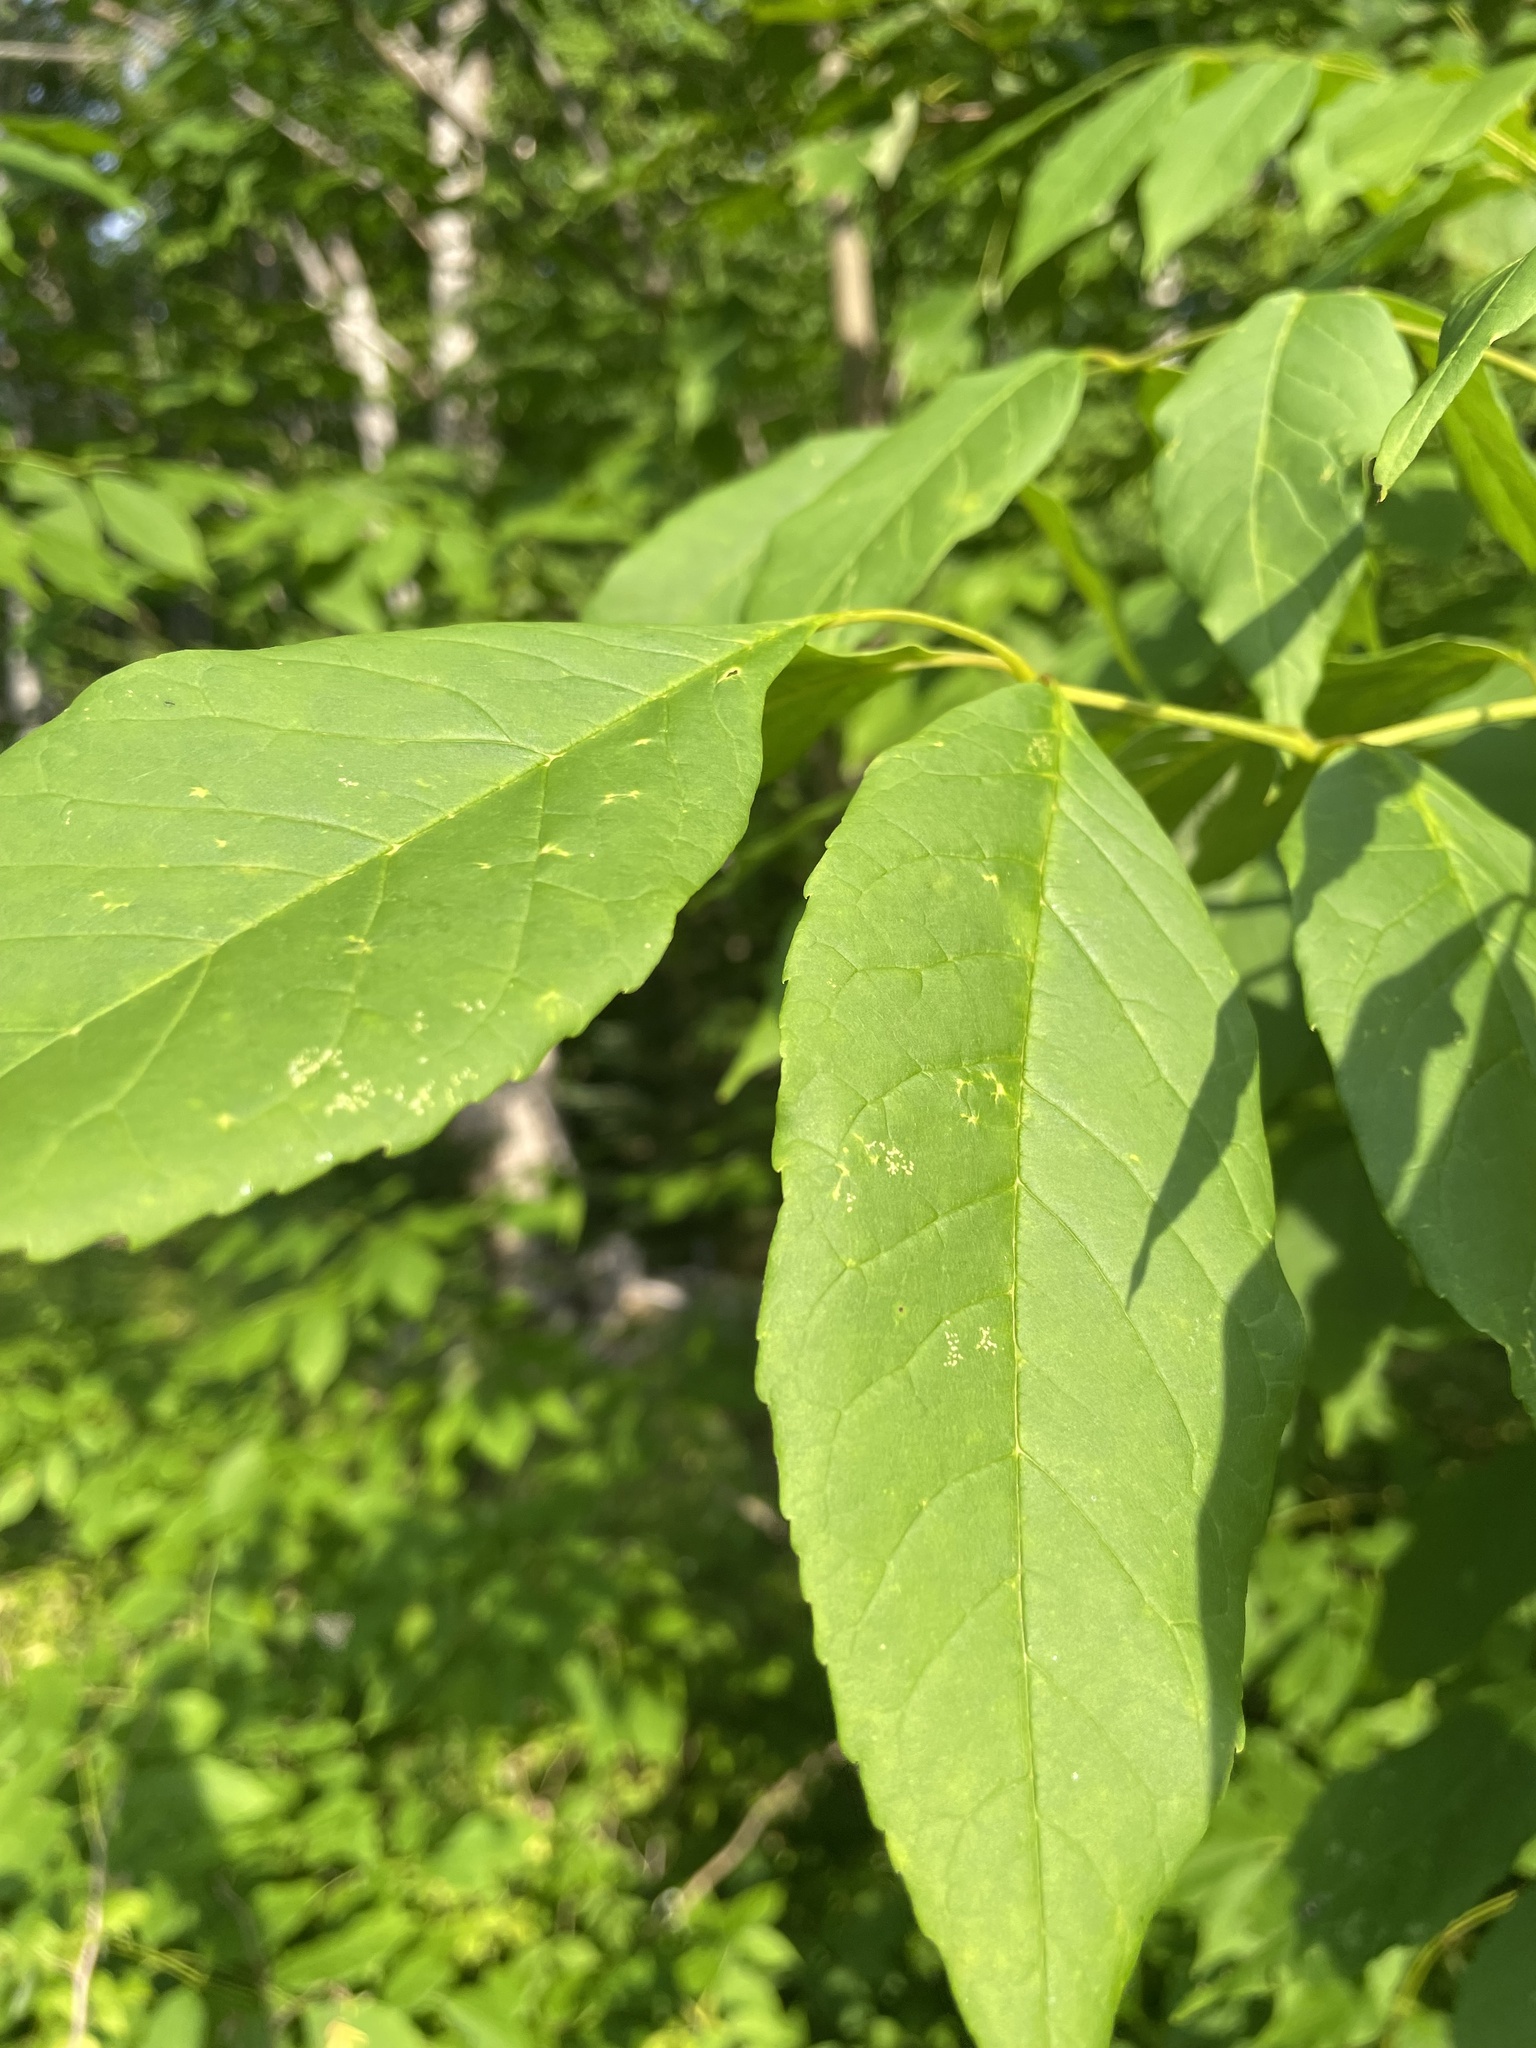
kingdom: Plantae
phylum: Tracheophyta
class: Magnoliopsida
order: Lamiales
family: Oleaceae
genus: Fraxinus
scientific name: Fraxinus americana
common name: White ash
